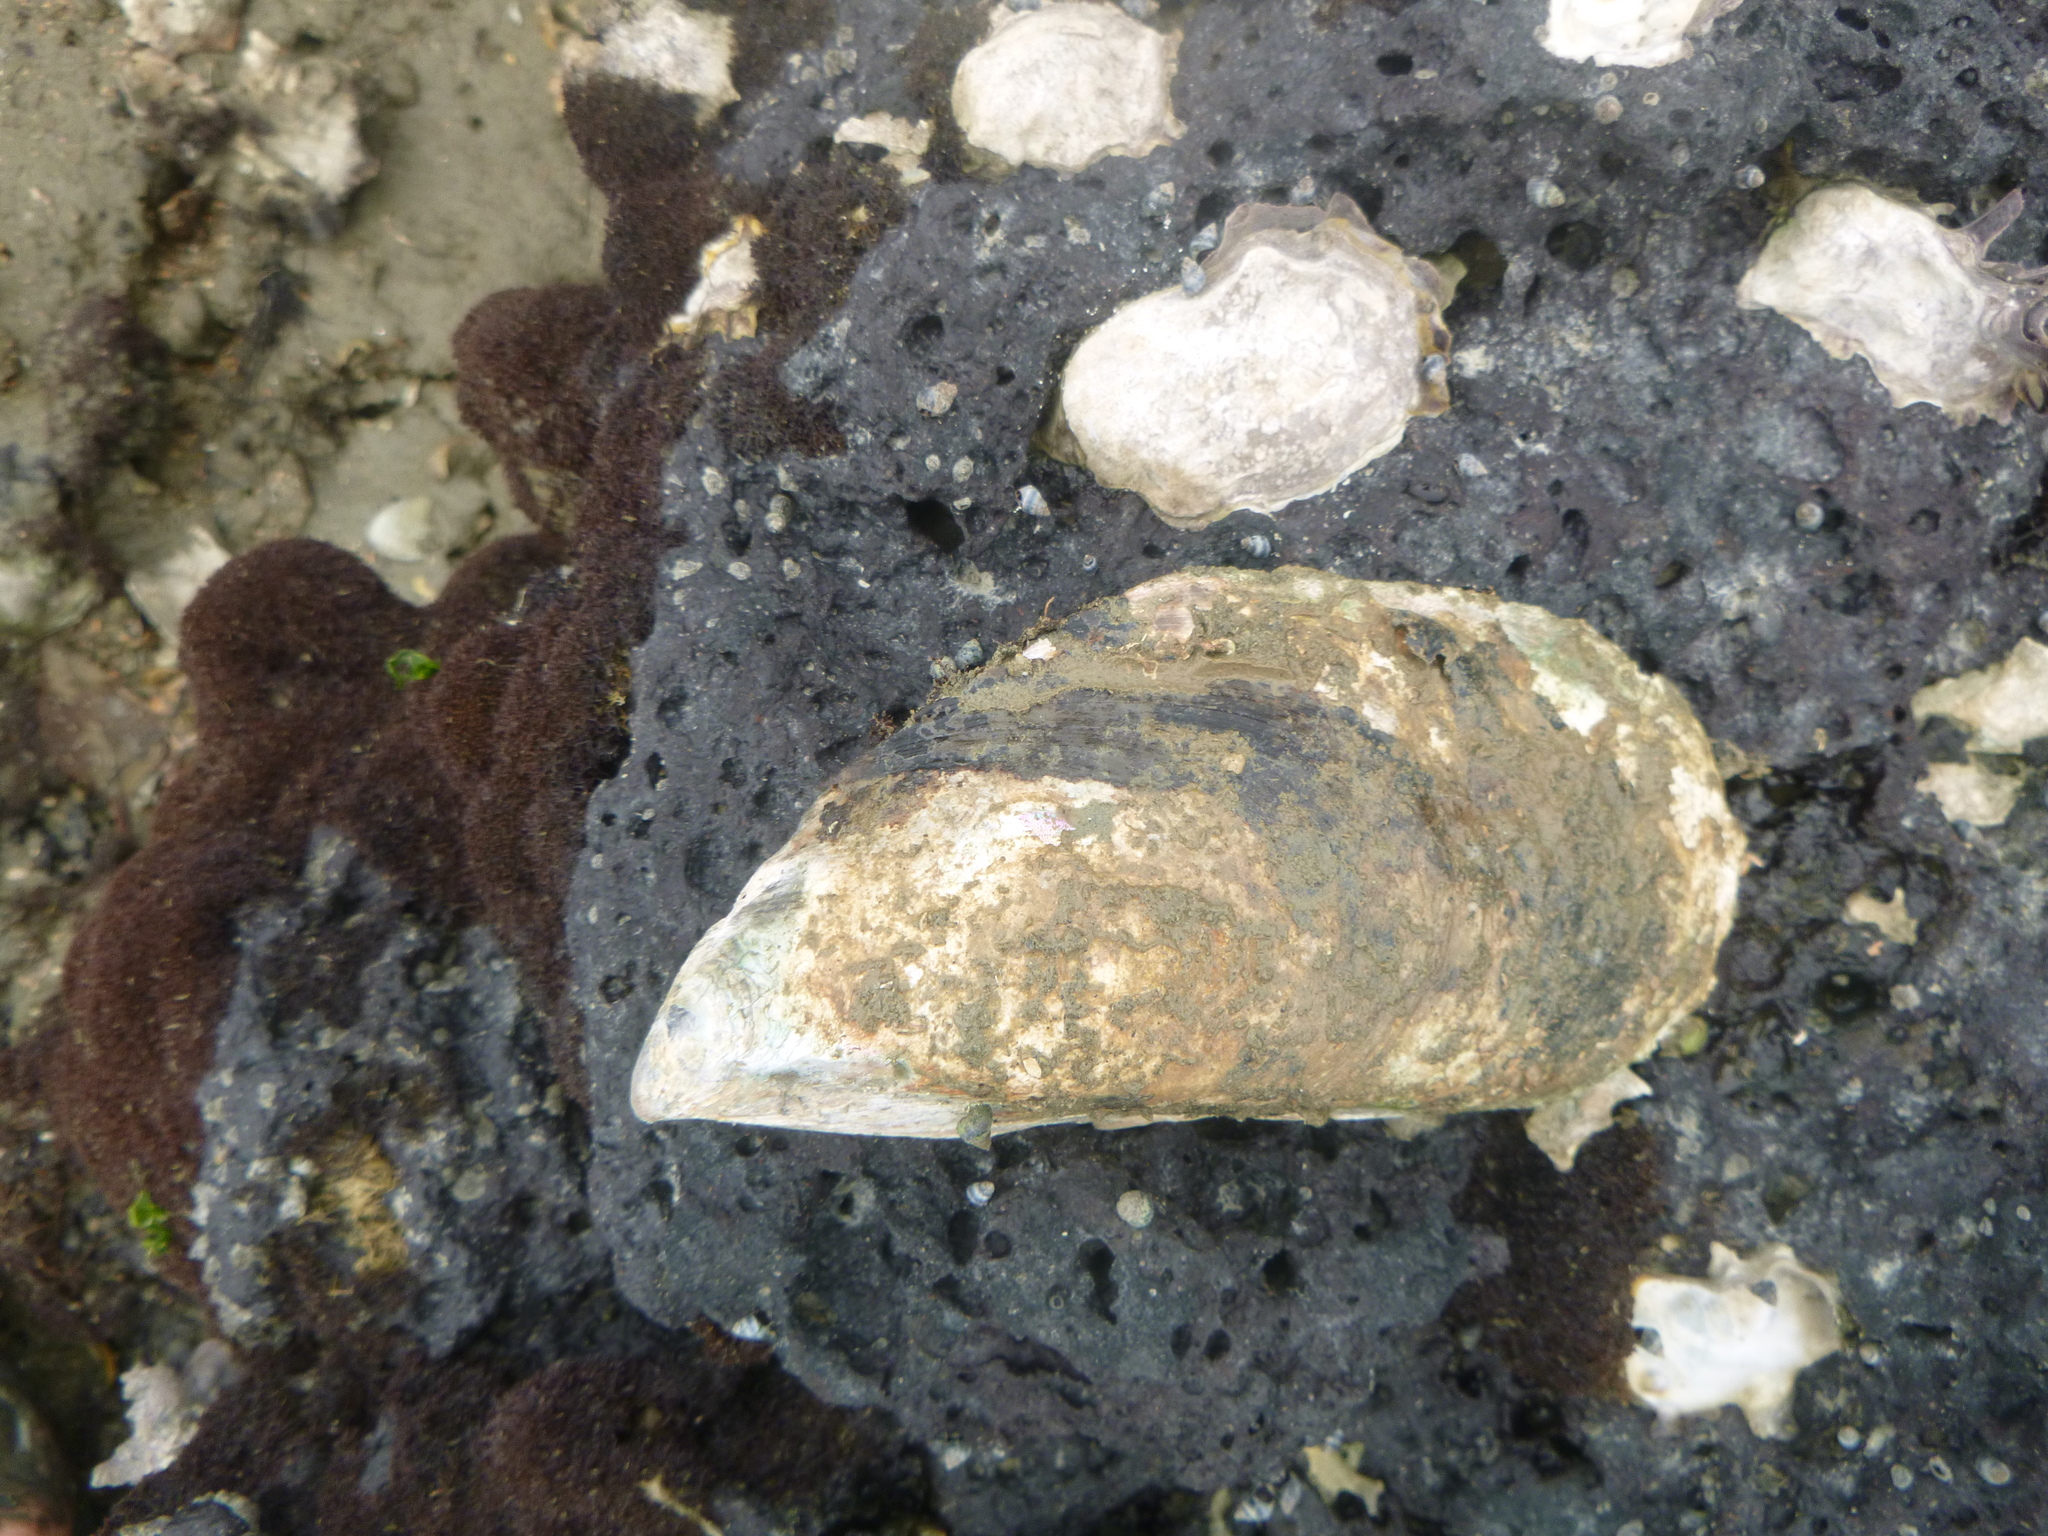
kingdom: Animalia
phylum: Mollusca
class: Bivalvia
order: Mytilida
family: Mytilidae
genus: Perna
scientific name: Perna canaliculus
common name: New zealand greenshelltm
